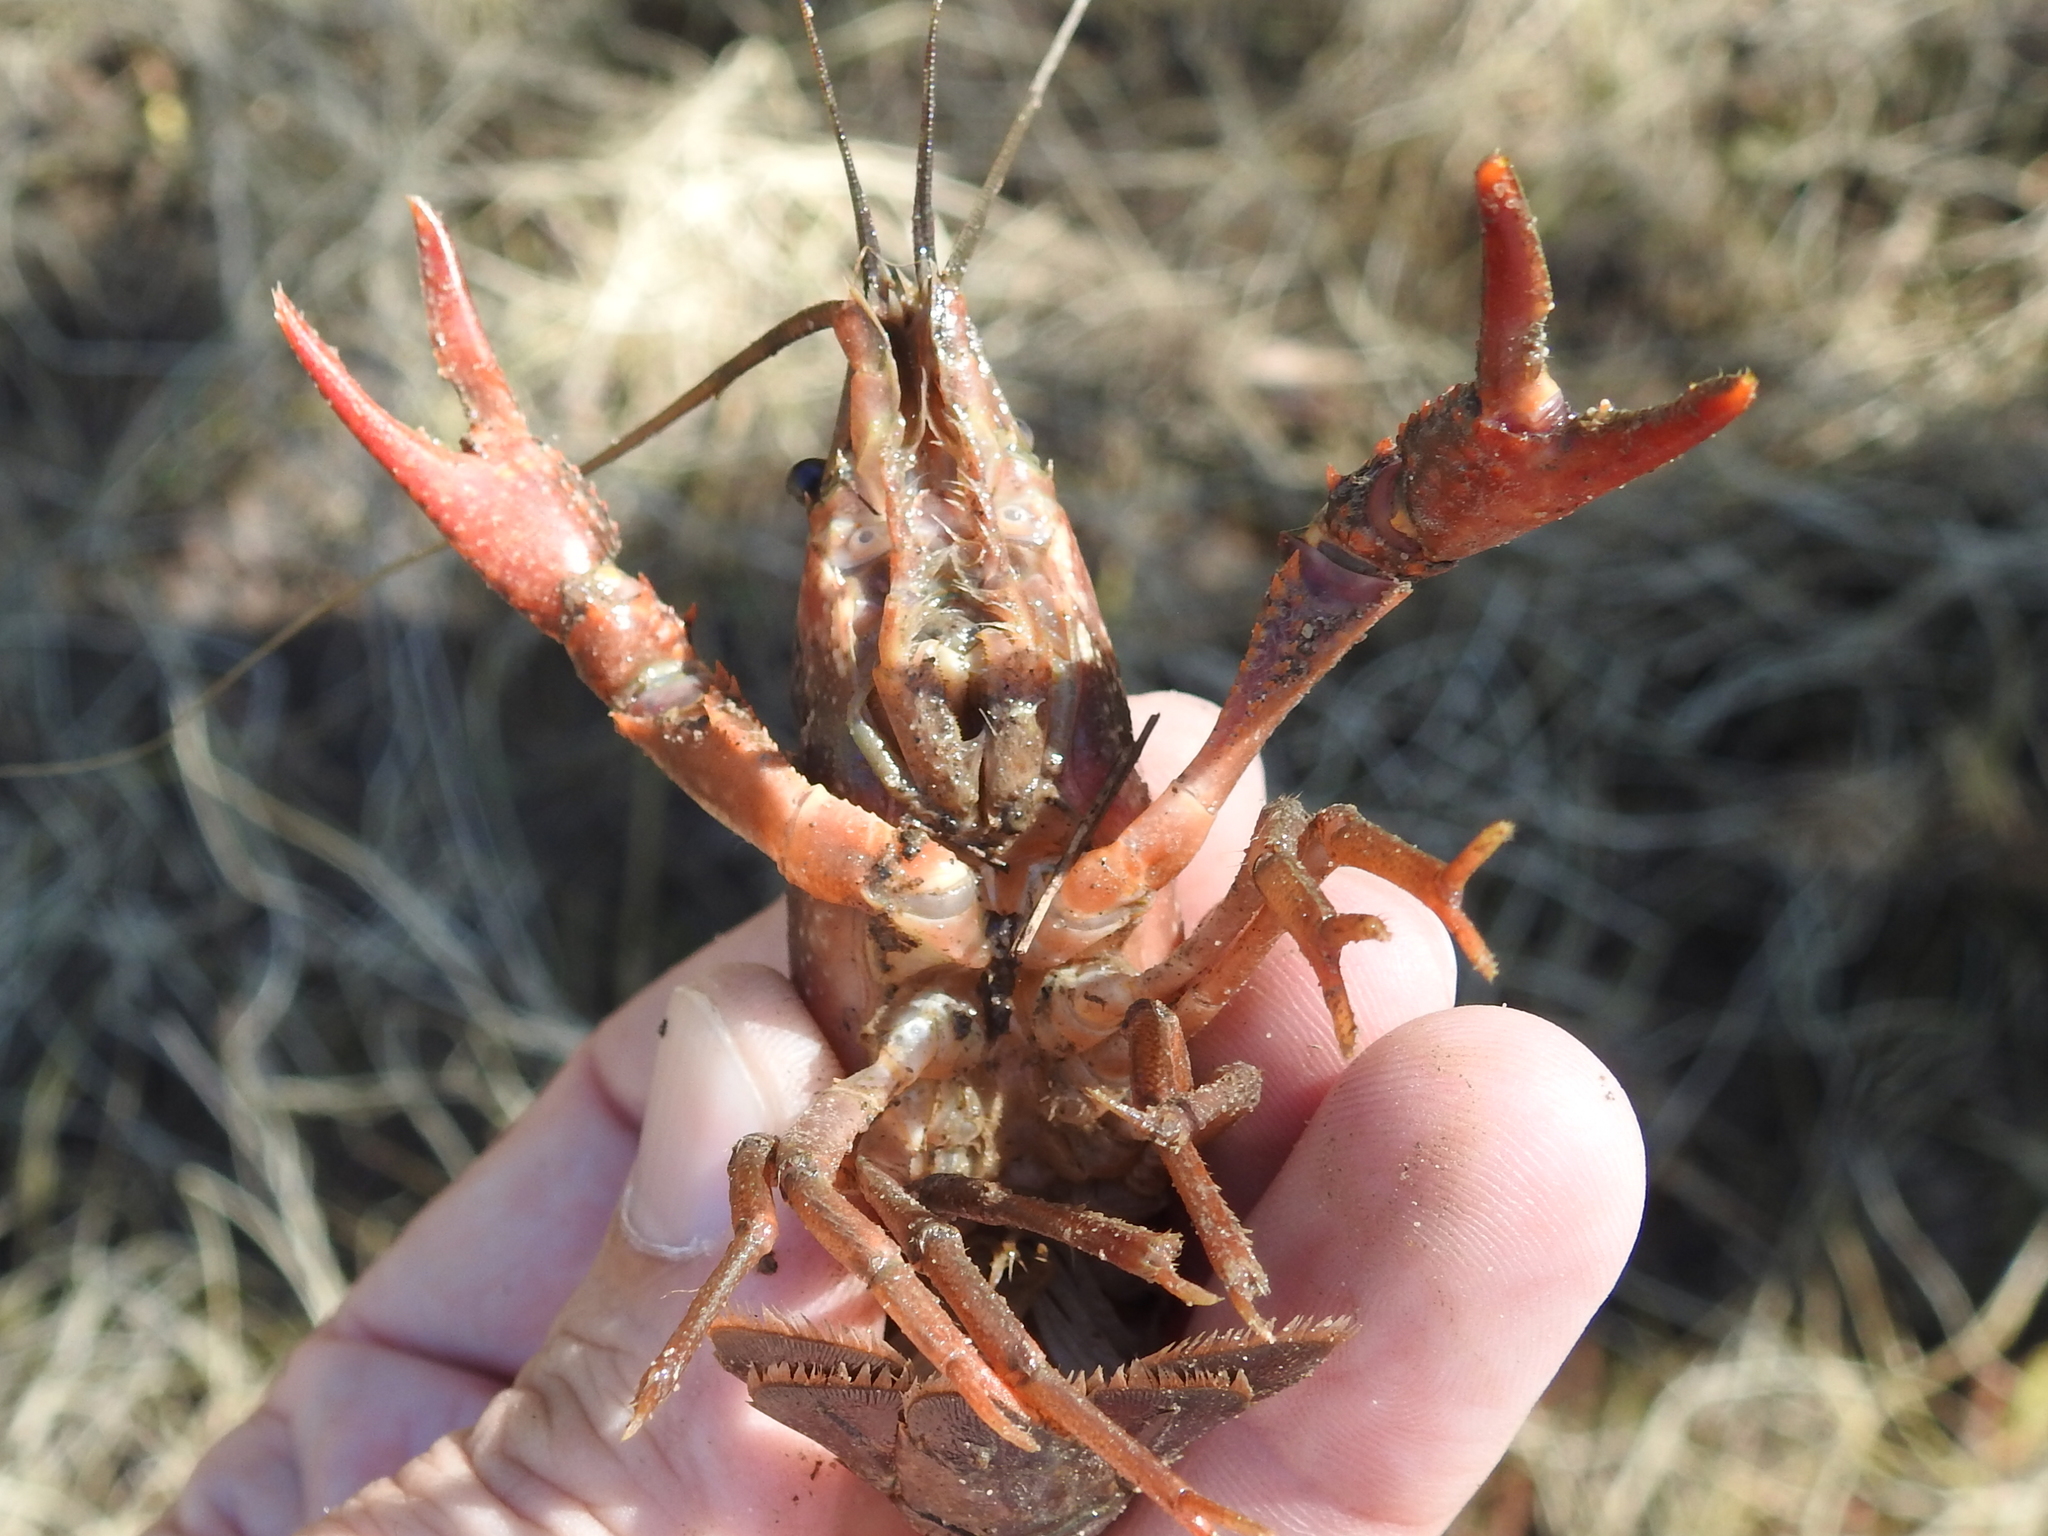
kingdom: Animalia
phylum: Arthropoda
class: Malacostraca
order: Decapoda
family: Cambaridae
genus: Procambarus
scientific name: Procambarus clarkii
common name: Red swamp crayfish
